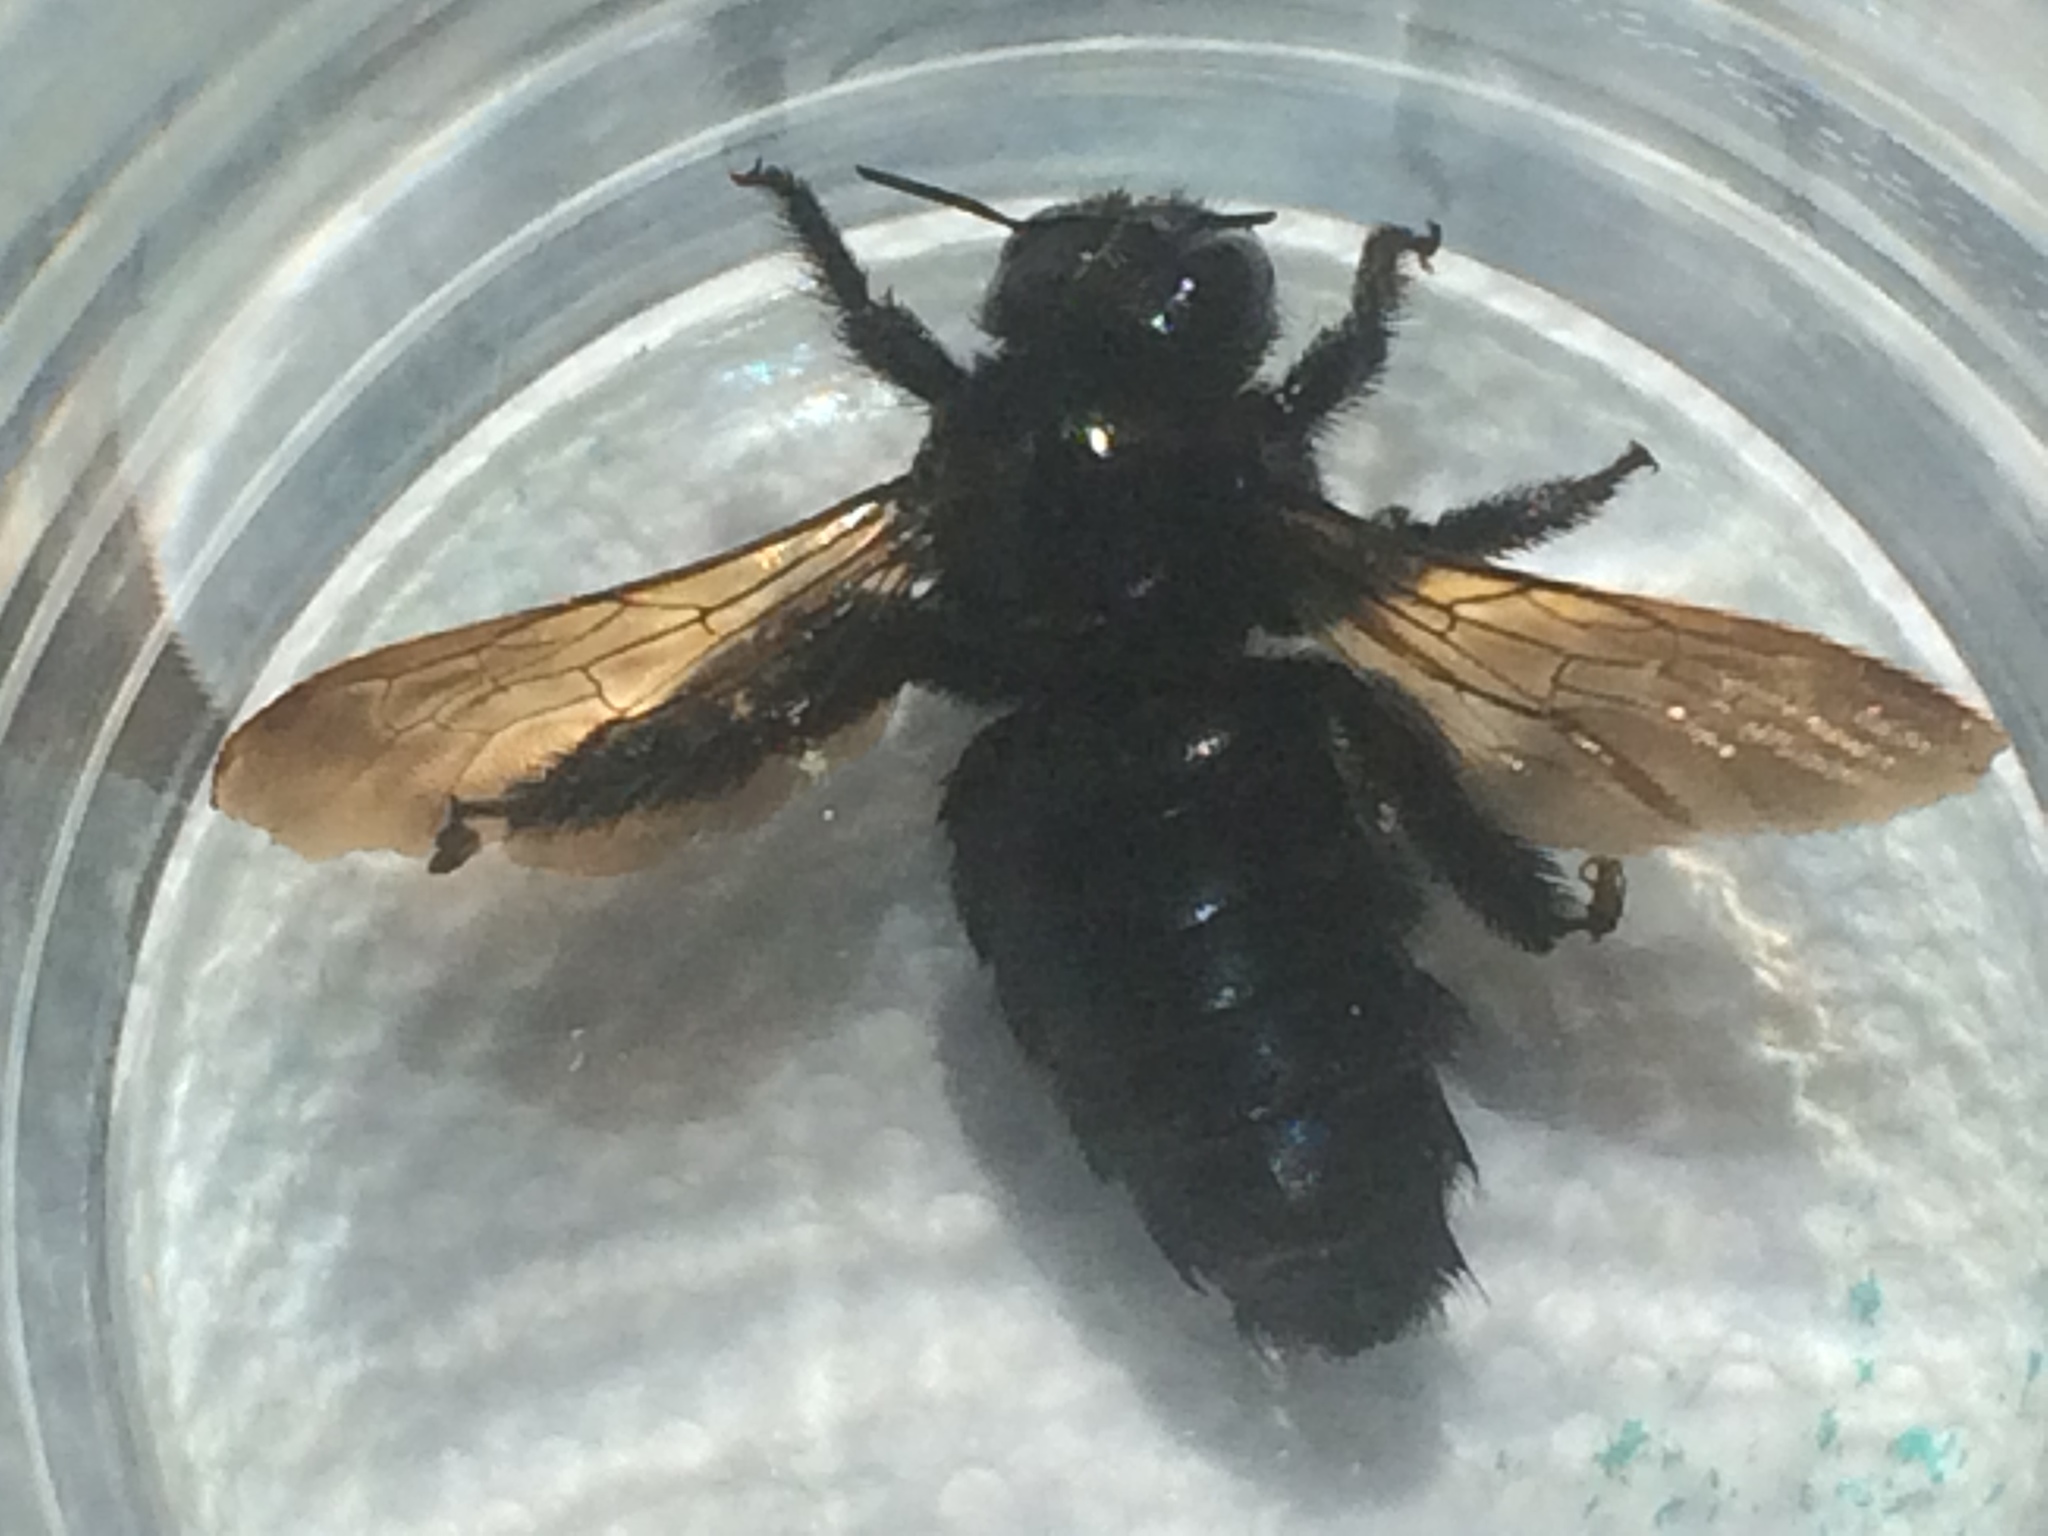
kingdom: Animalia
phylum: Arthropoda
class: Insecta
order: Hymenoptera
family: Apidae
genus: Xylocopa
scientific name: Xylocopa sonorina
